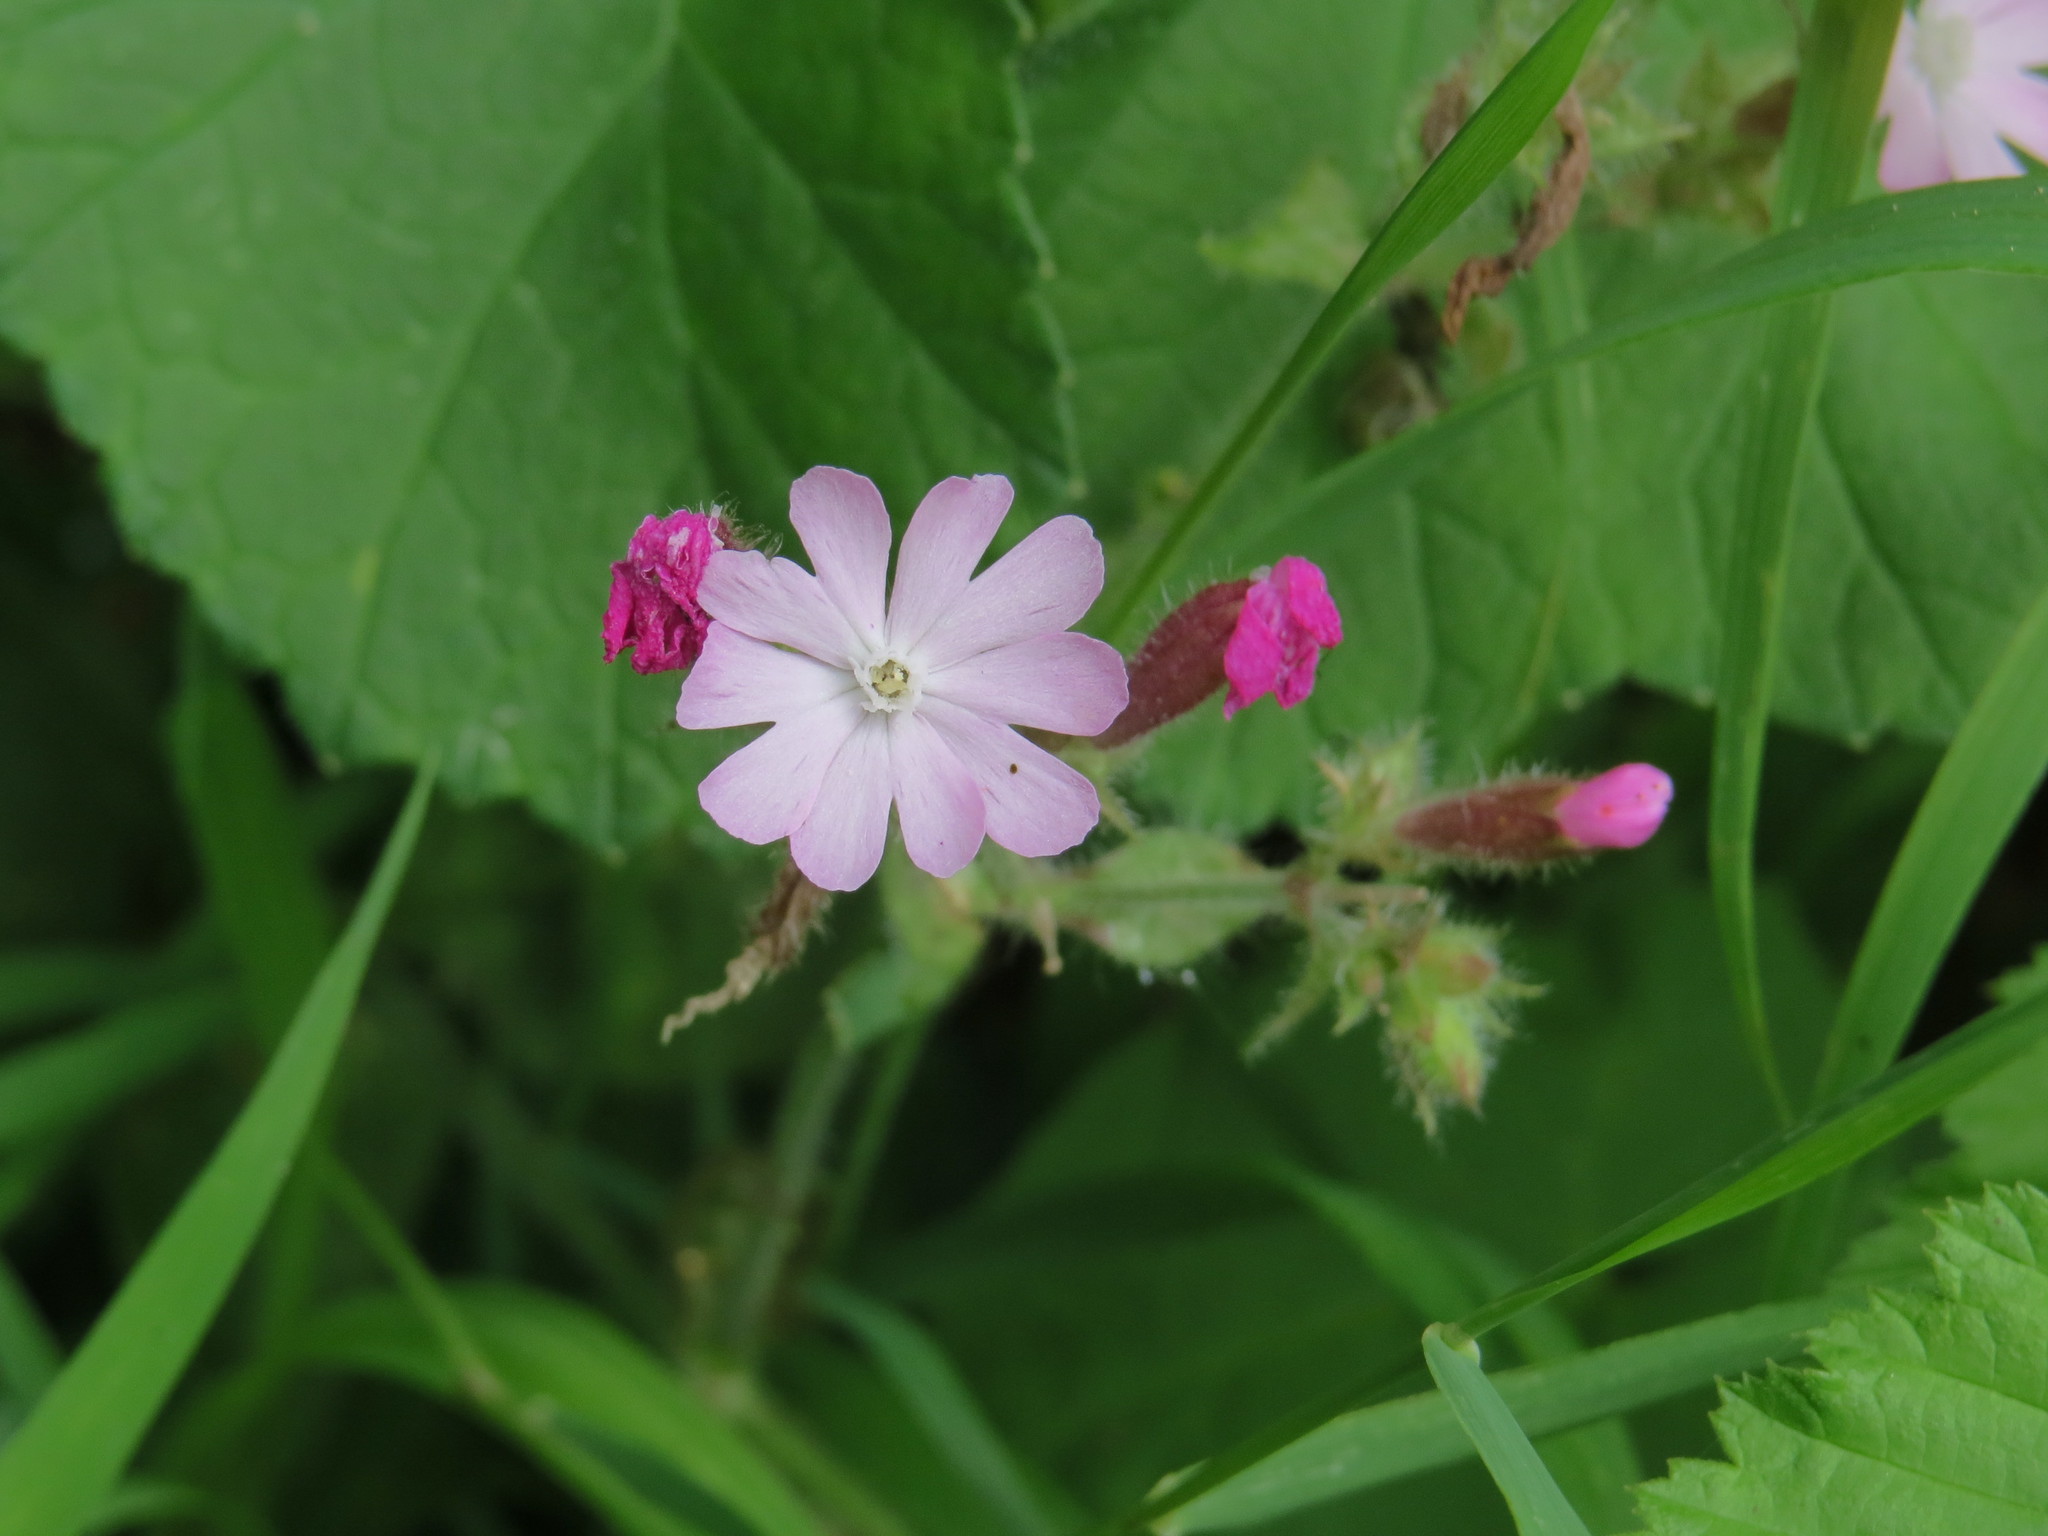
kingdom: Plantae
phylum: Tracheophyta
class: Magnoliopsida
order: Caryophyllales
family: Caryophyllaceae
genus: Silene
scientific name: Silene dioica
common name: Red campion
